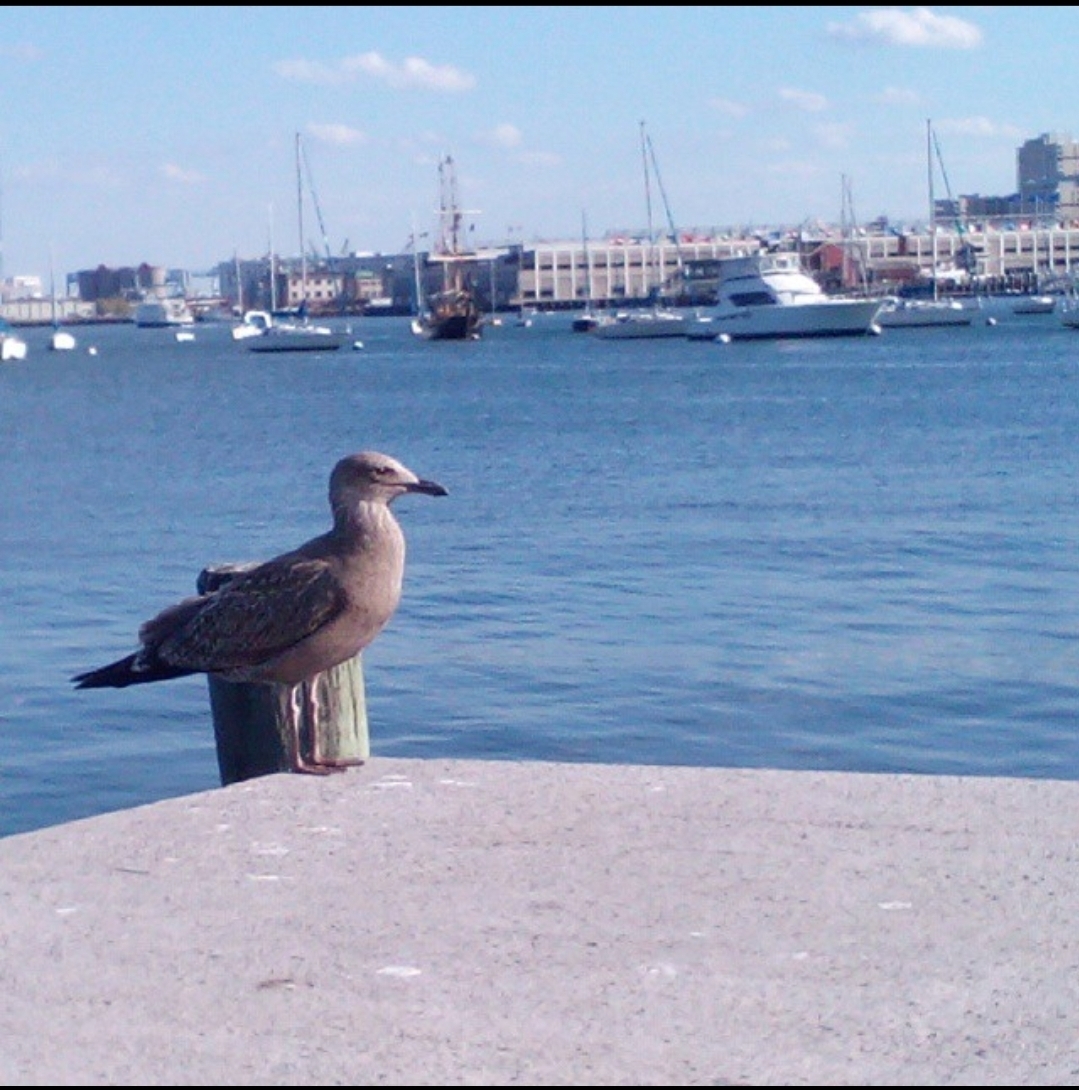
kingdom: Animalia
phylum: Chordata
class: Aves
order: Charadriiformes
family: Laridae
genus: Larus
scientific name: Larus smithsonianus
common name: American herring gull
